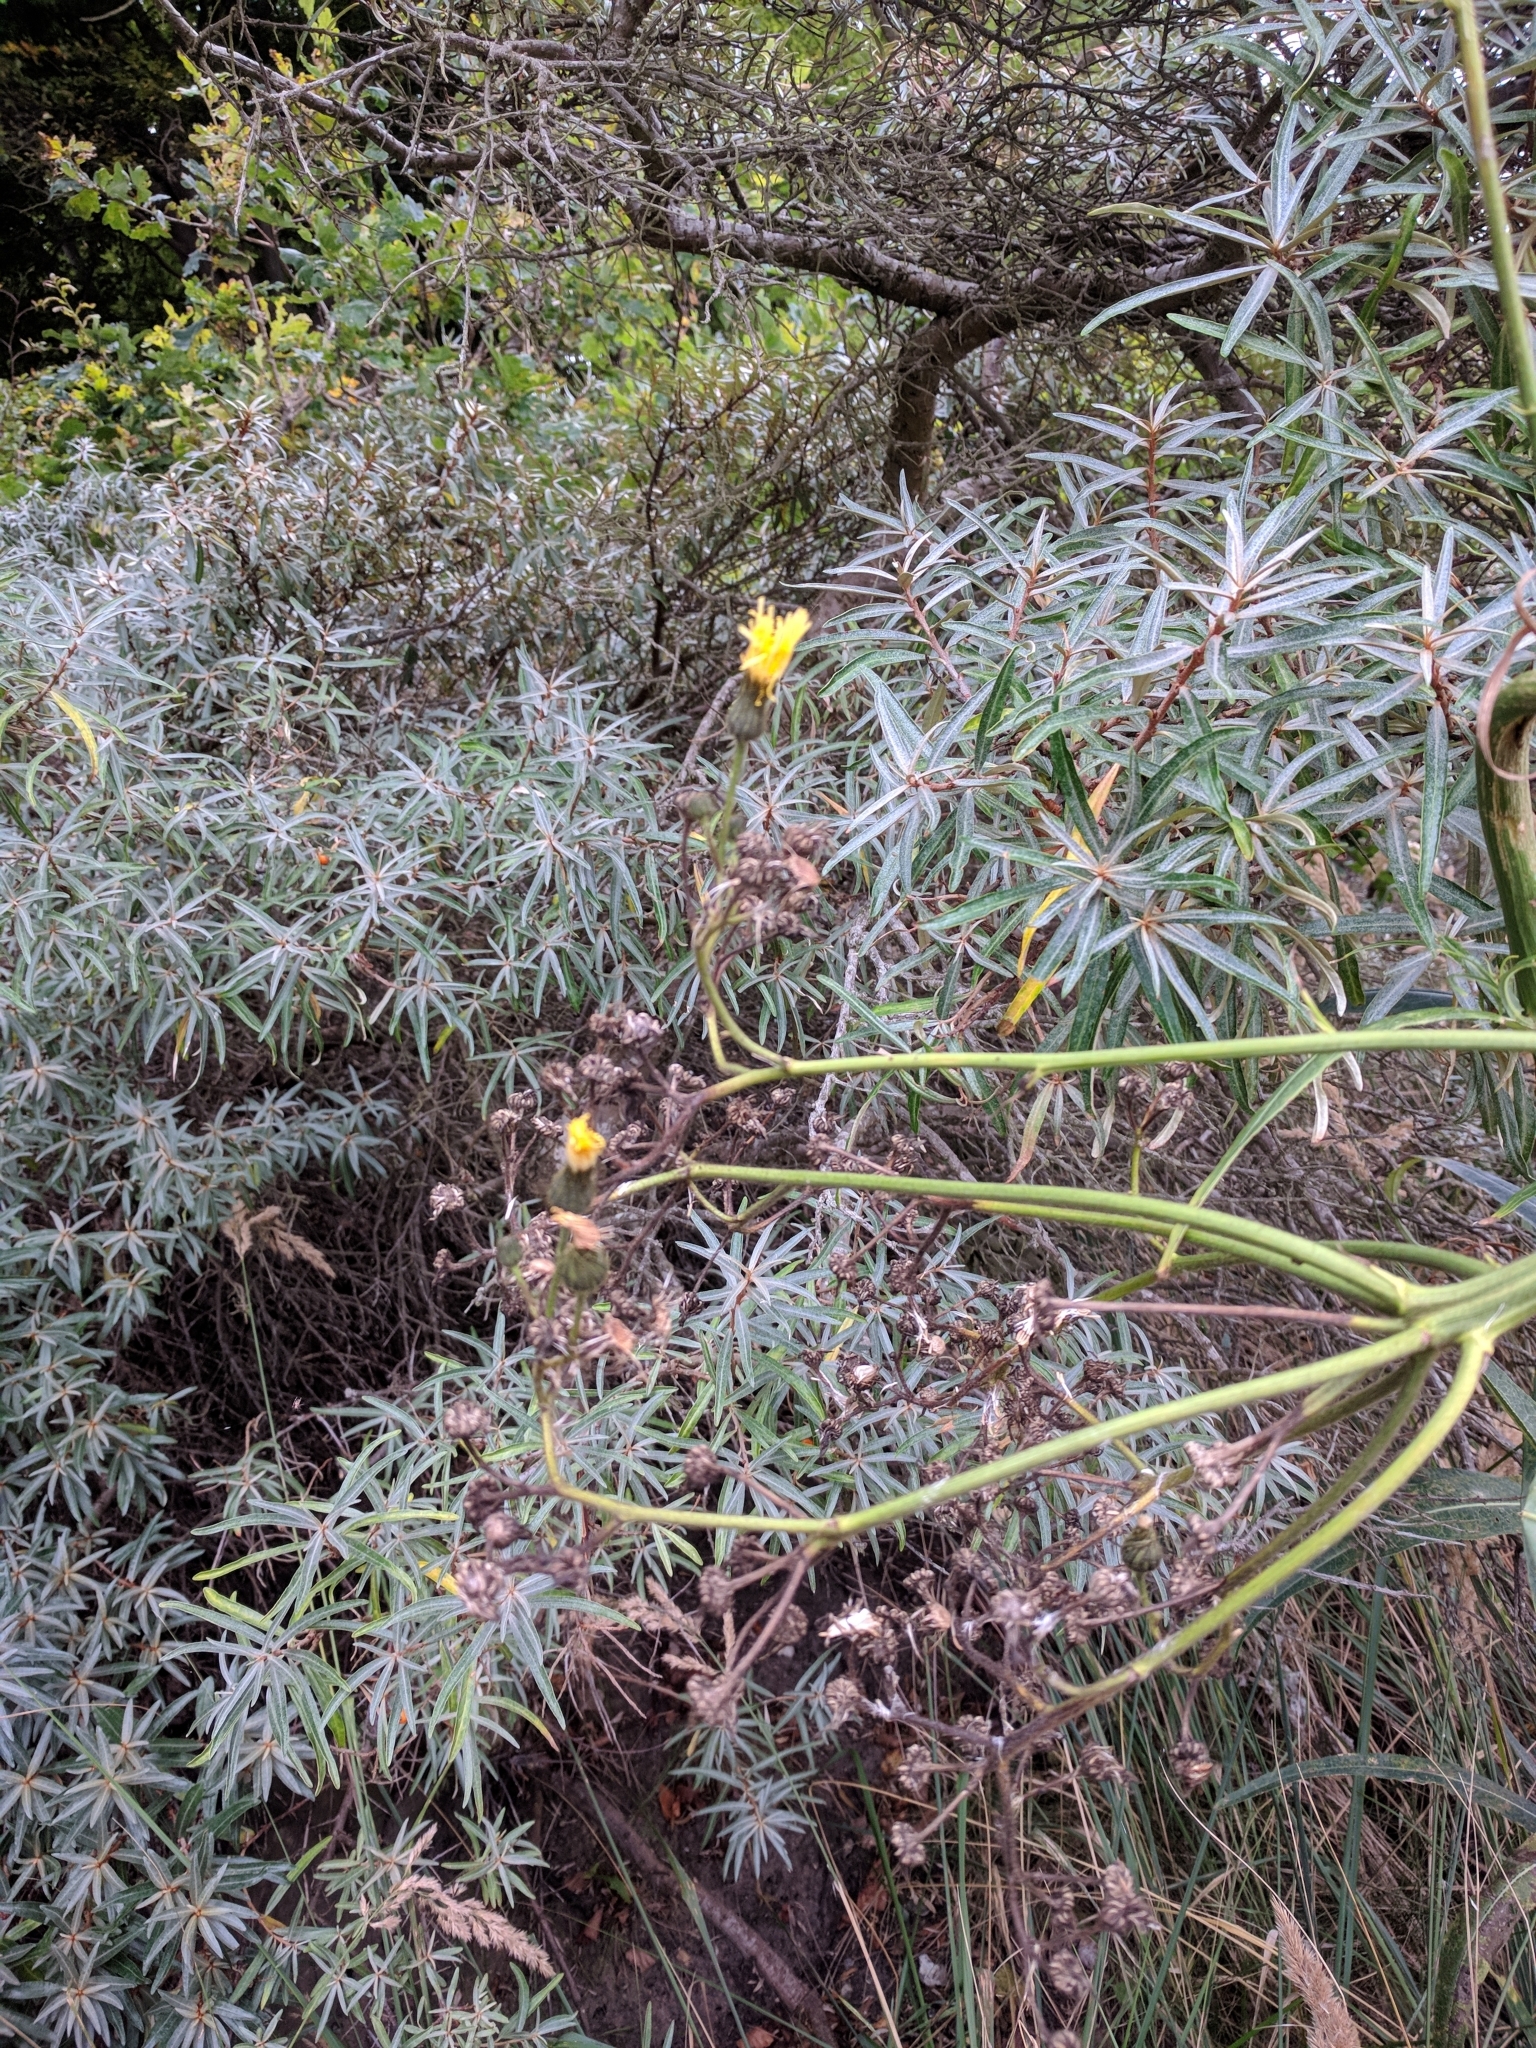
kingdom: Plantae
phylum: Tracheophyta
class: Magnoliopsida
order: Asterales
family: Asteraceae
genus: Sonchus
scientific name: Sonchus palustris
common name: Marsh sow-thistle
